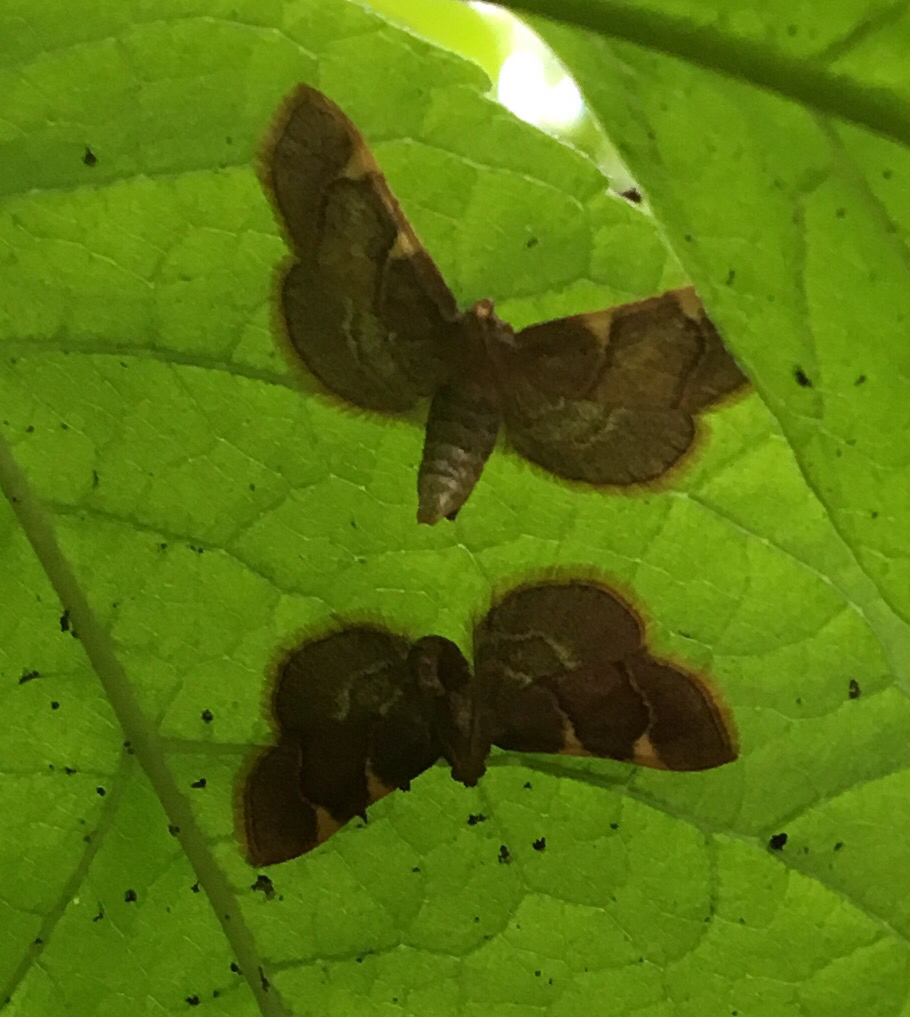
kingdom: Animalia
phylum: Arthropoda
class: Insecta
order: Lepidoptera
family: Pyralidae
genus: Hypsopygia
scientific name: Hypsopygia olinalis
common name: Yellow-fringed dolichomia moth
